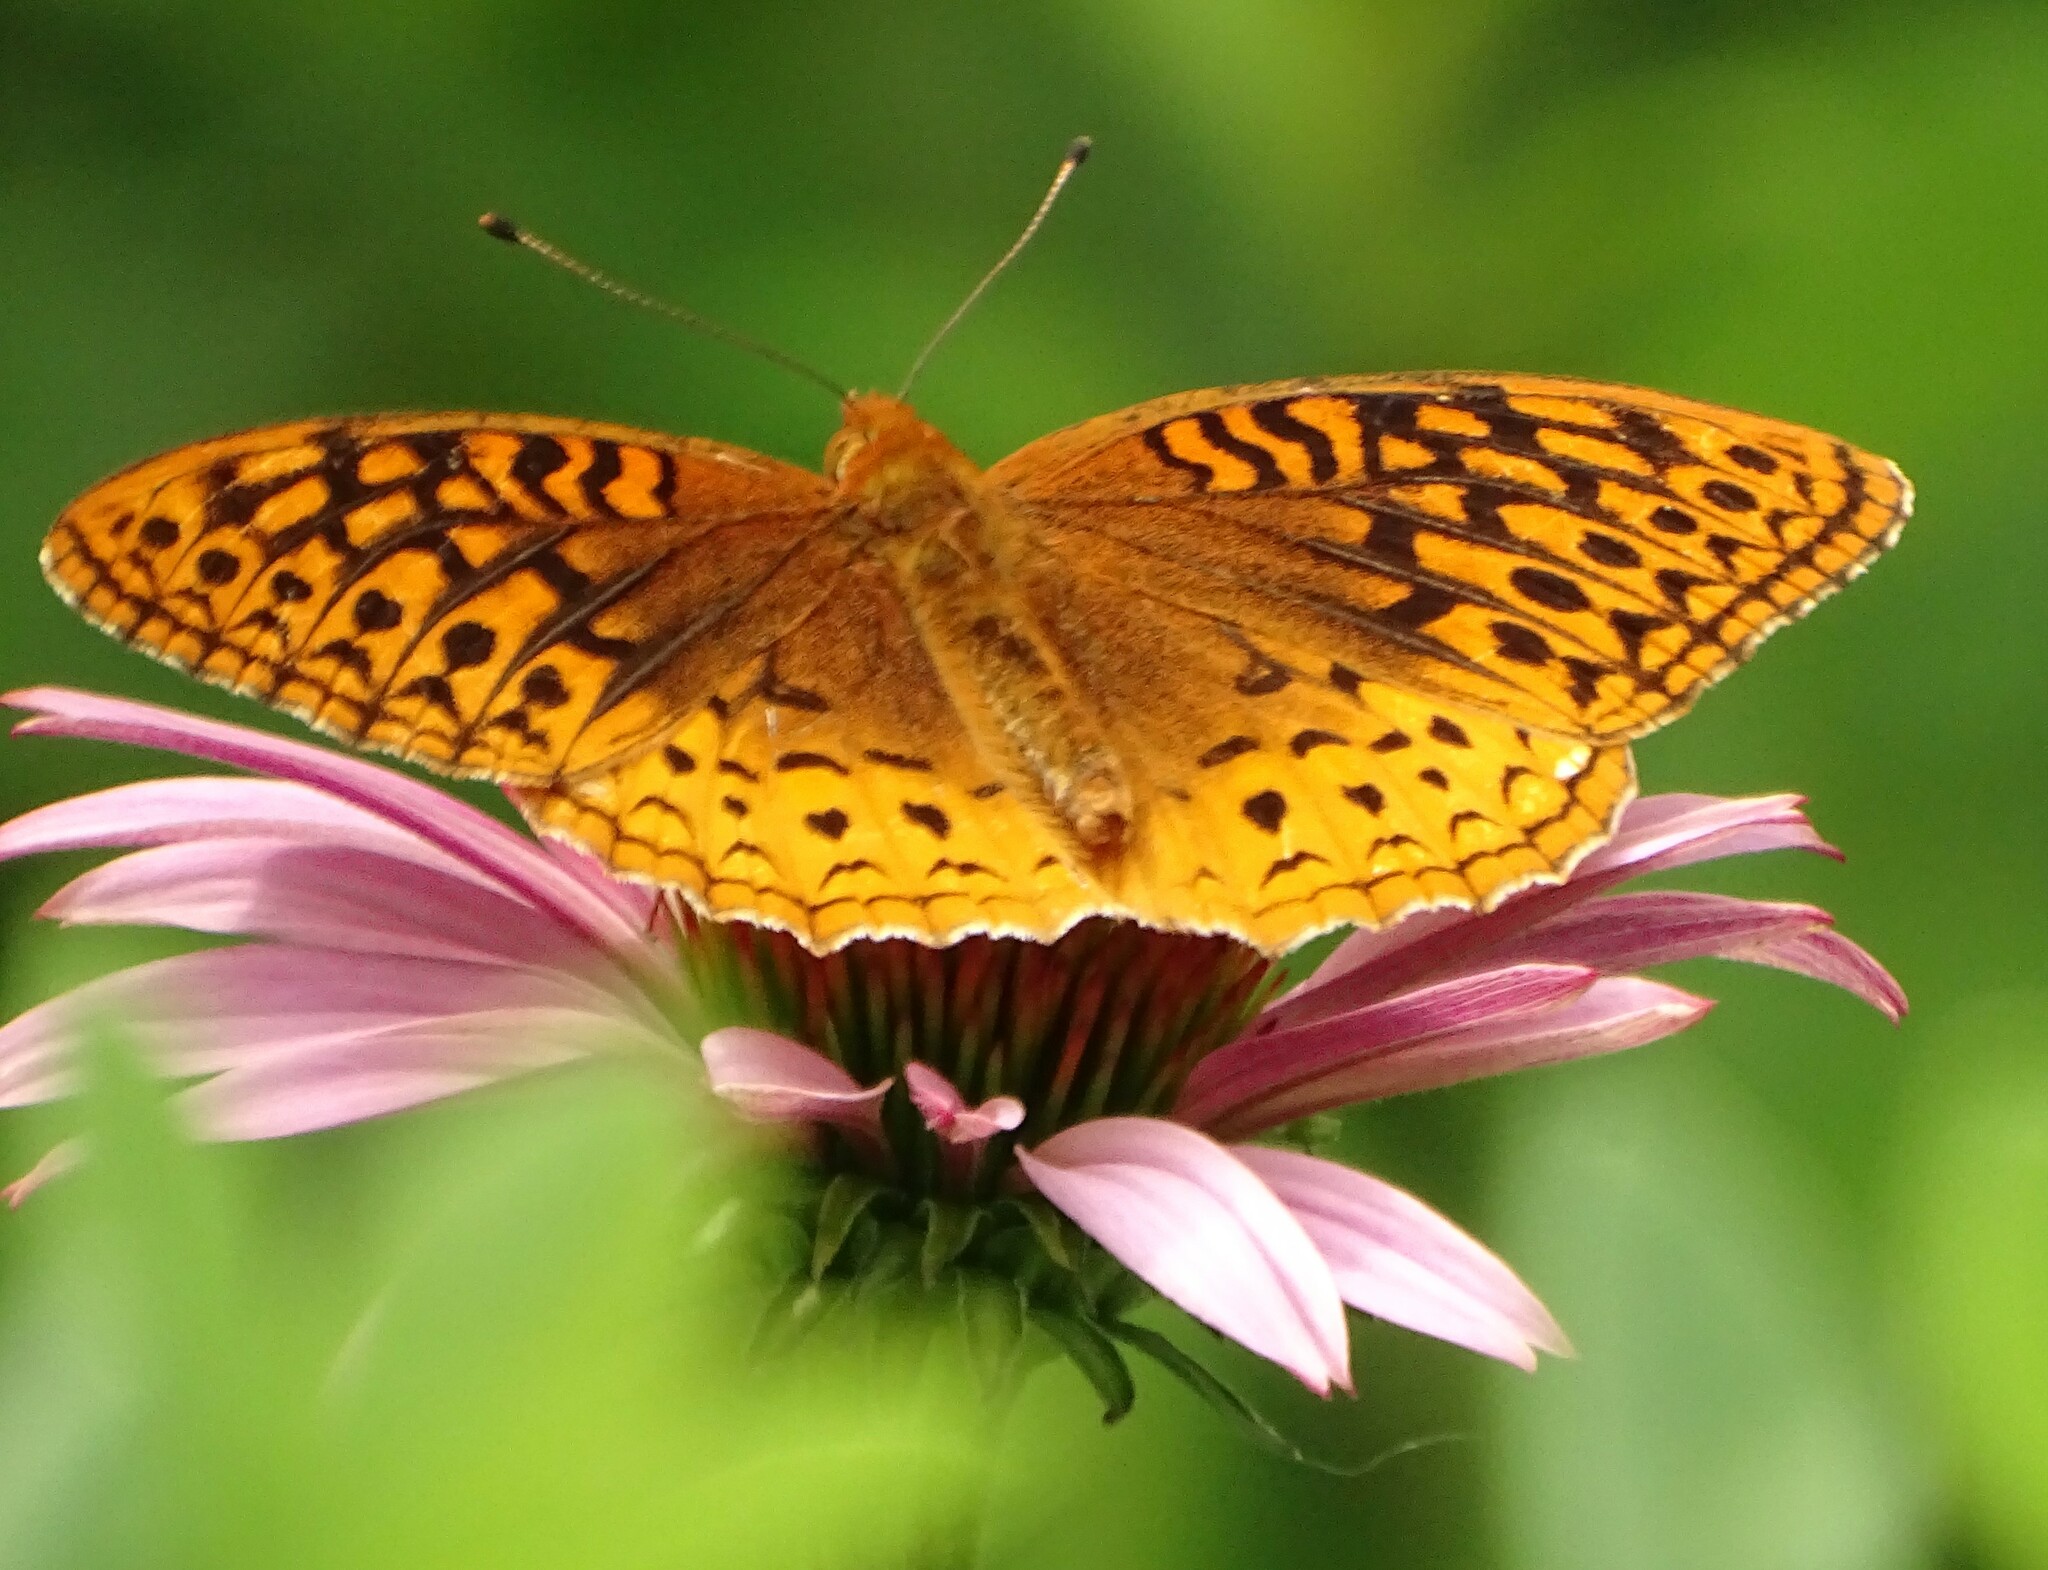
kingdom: Animalia
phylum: Arthropoda
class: Insecta
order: Lepidoptera
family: Nymphalidae
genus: Speyeria
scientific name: Speyeria cybele
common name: Great spangled fritillary
